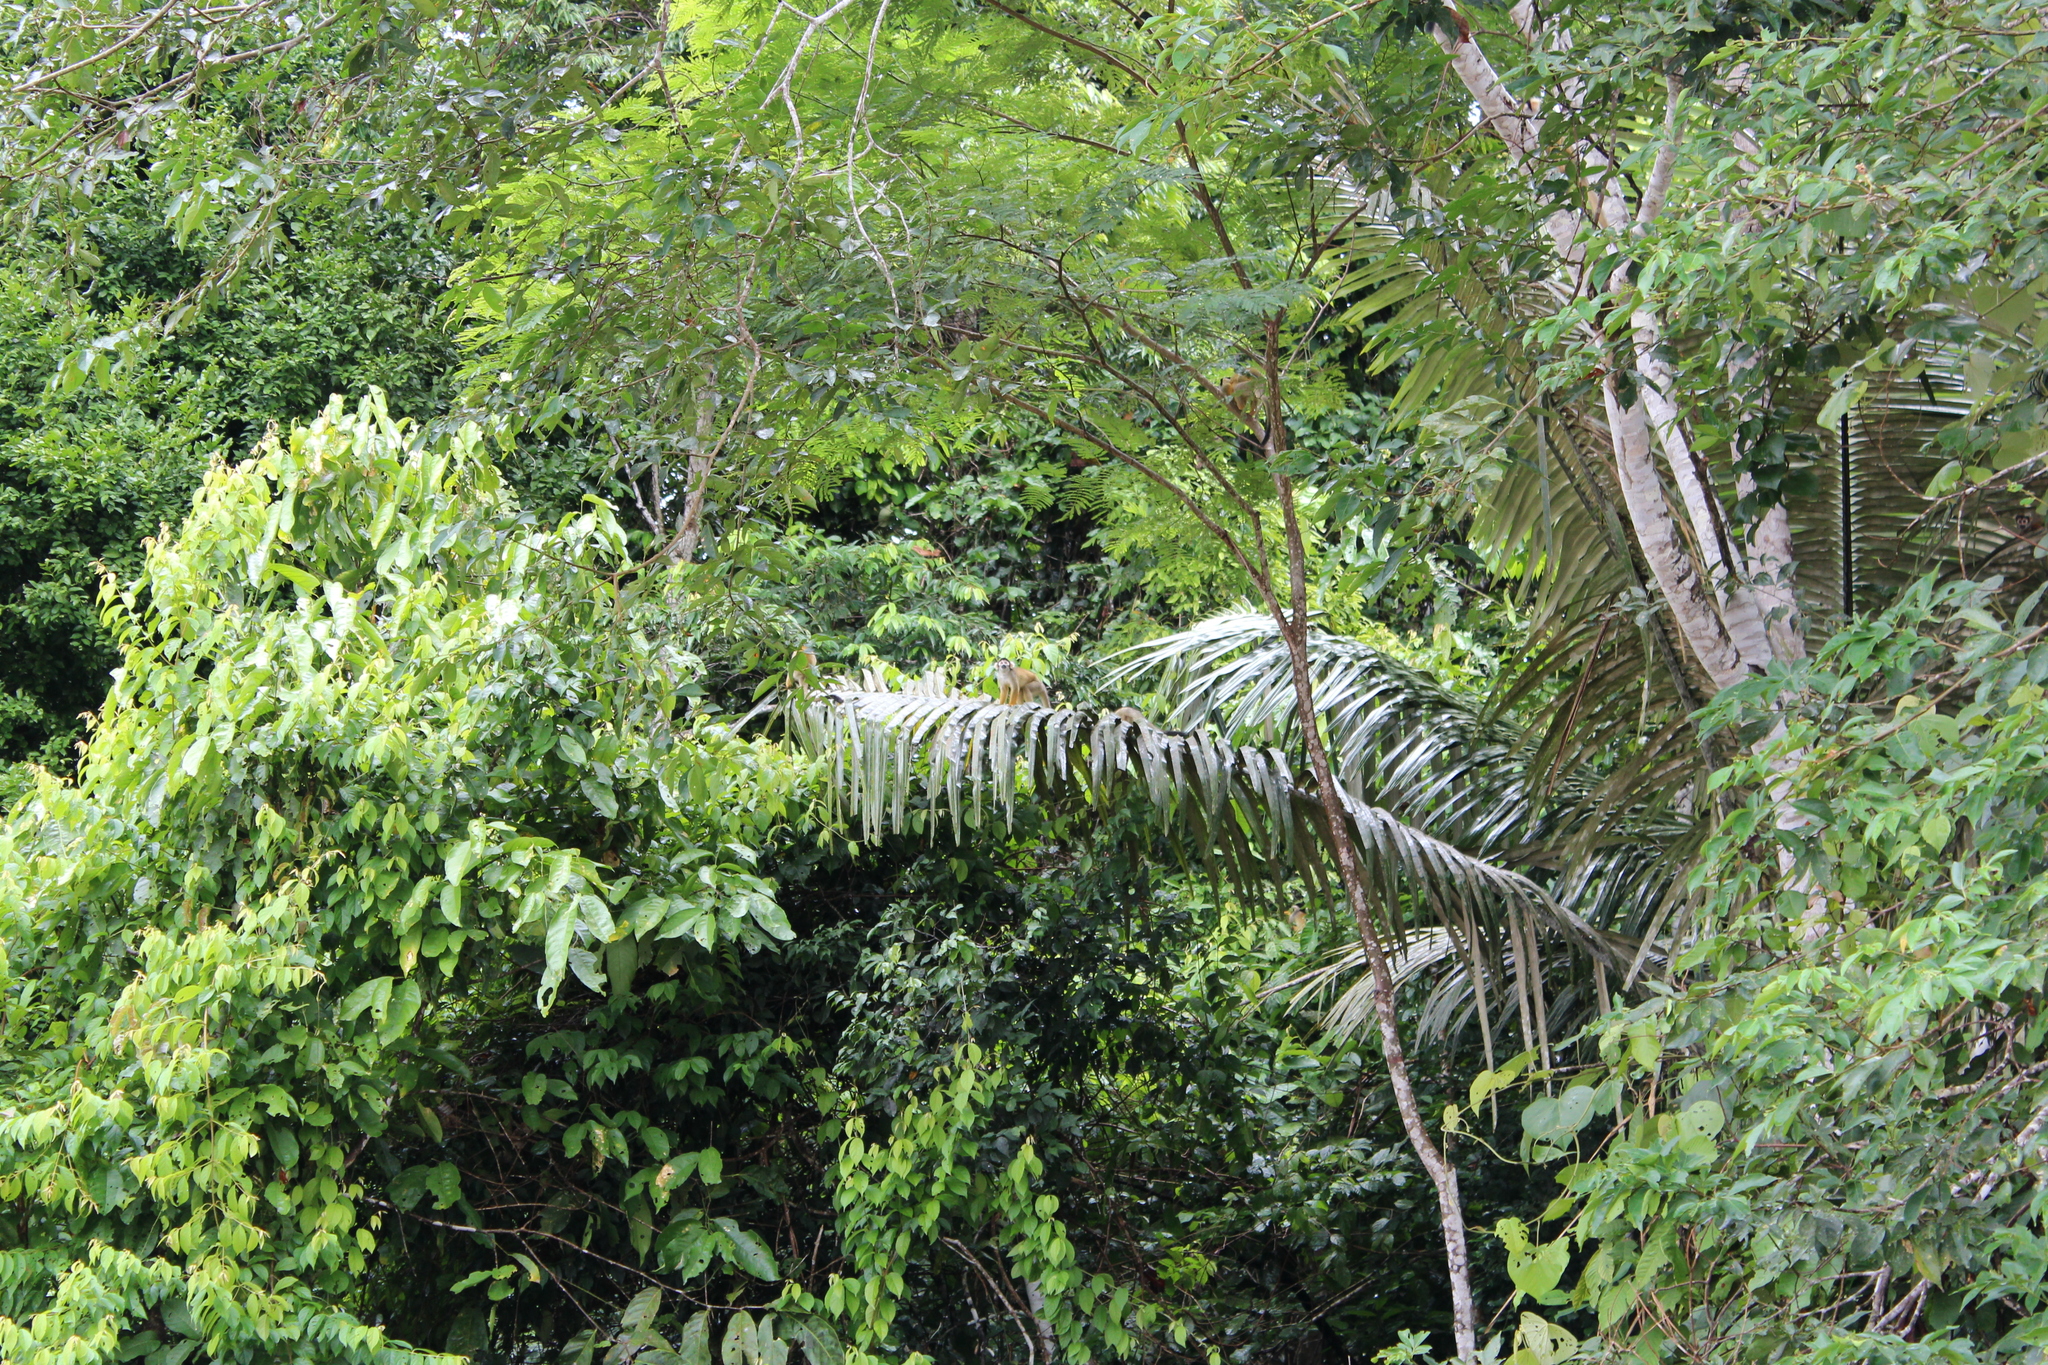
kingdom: Animalia
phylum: Chordata
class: Mammalia
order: Primates
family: Cebidae
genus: Saimiri
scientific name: Saimiri boliviensis
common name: Black-capped squirrel monkey
